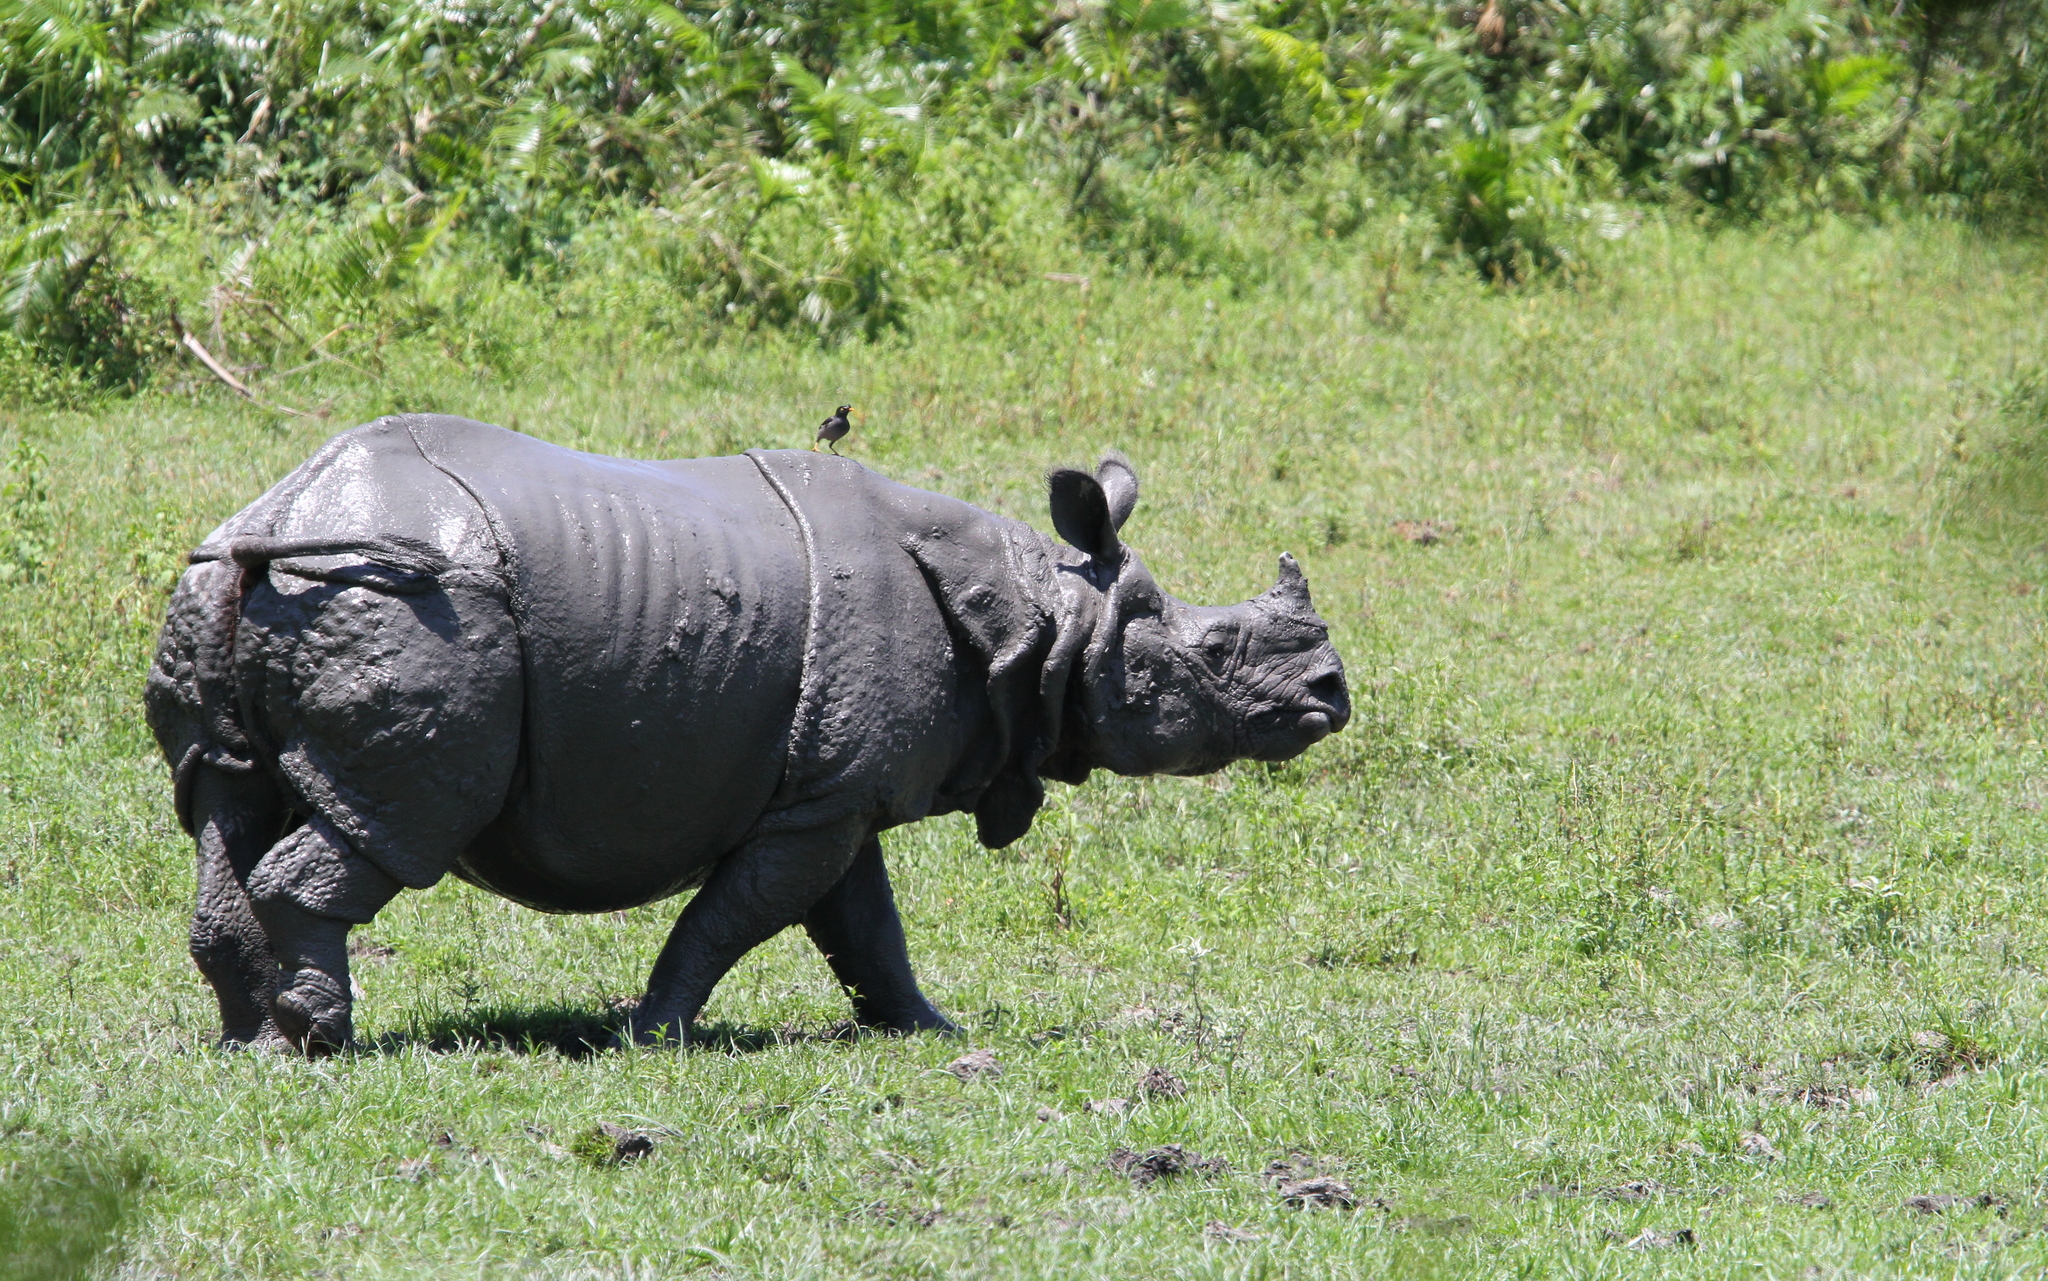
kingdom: Animalia
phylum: Chordata
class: Mammalia
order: Perissodactyla
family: Rhinocerotidae
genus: Rhinoceros
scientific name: Rhinoceros unicornis
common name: Indian rhinoceros
